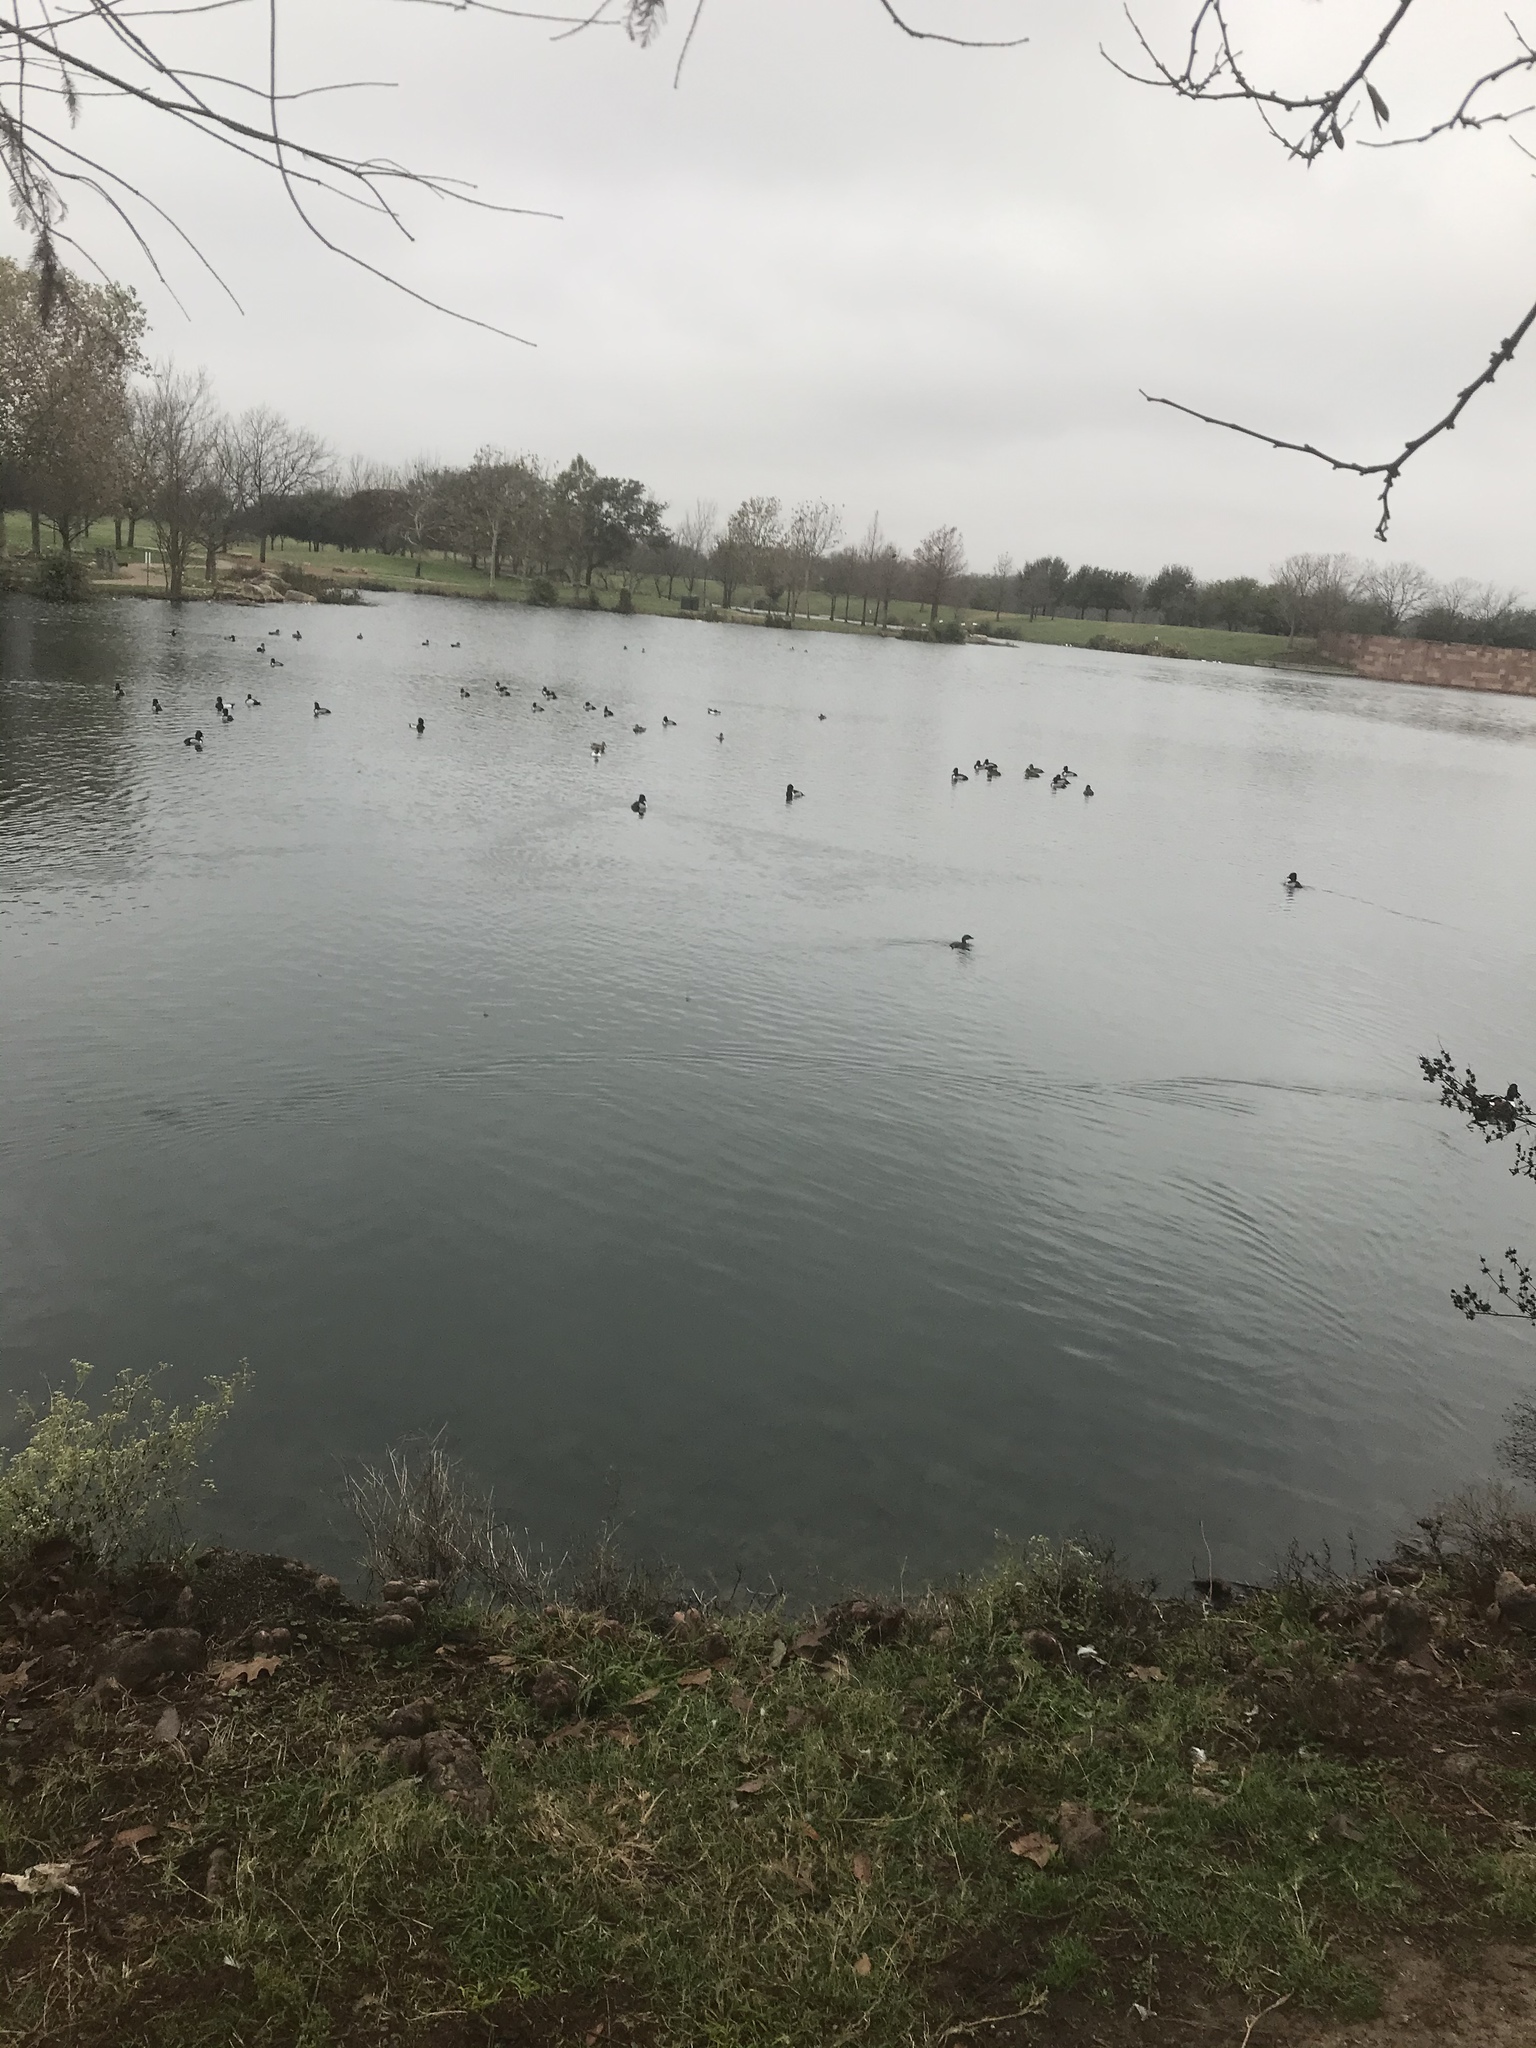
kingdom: Animalia
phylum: Chordata
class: Aves
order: Podicipediformes
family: Podicipedidae
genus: Podilymbus
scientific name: Podilymbus podiceps
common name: Pied-billed grebe
